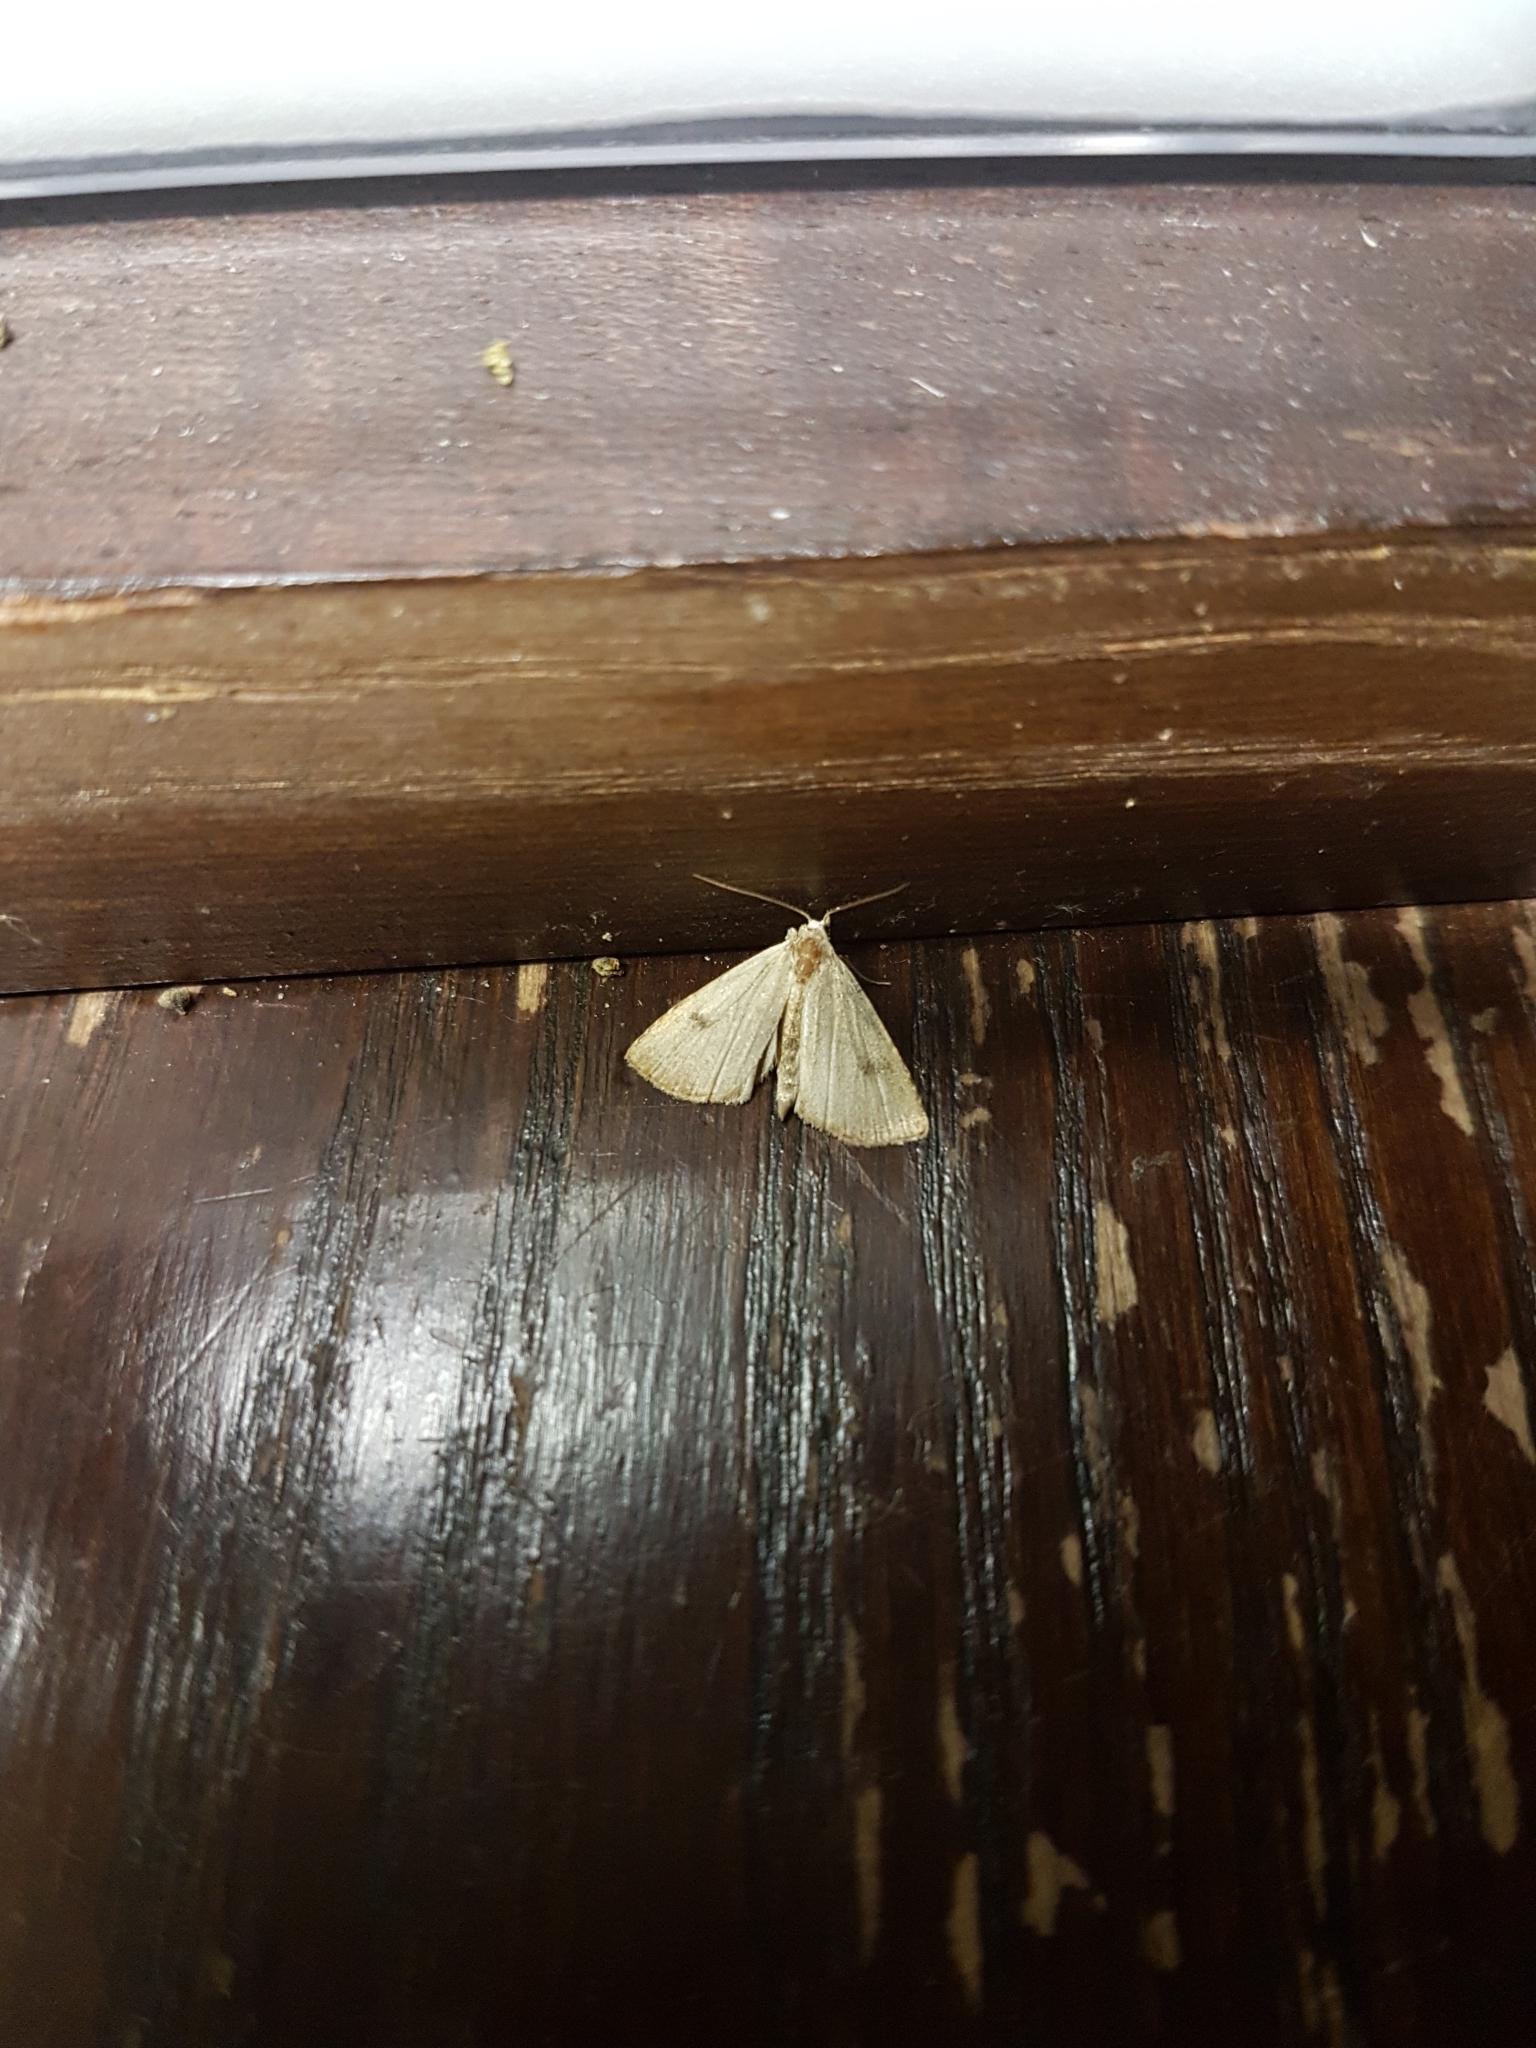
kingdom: Animalia
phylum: Arthropoda
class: Insecta
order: Lepidoptera
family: Erebidae
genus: Rivula
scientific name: Rivula sericealis
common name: Straw dot
